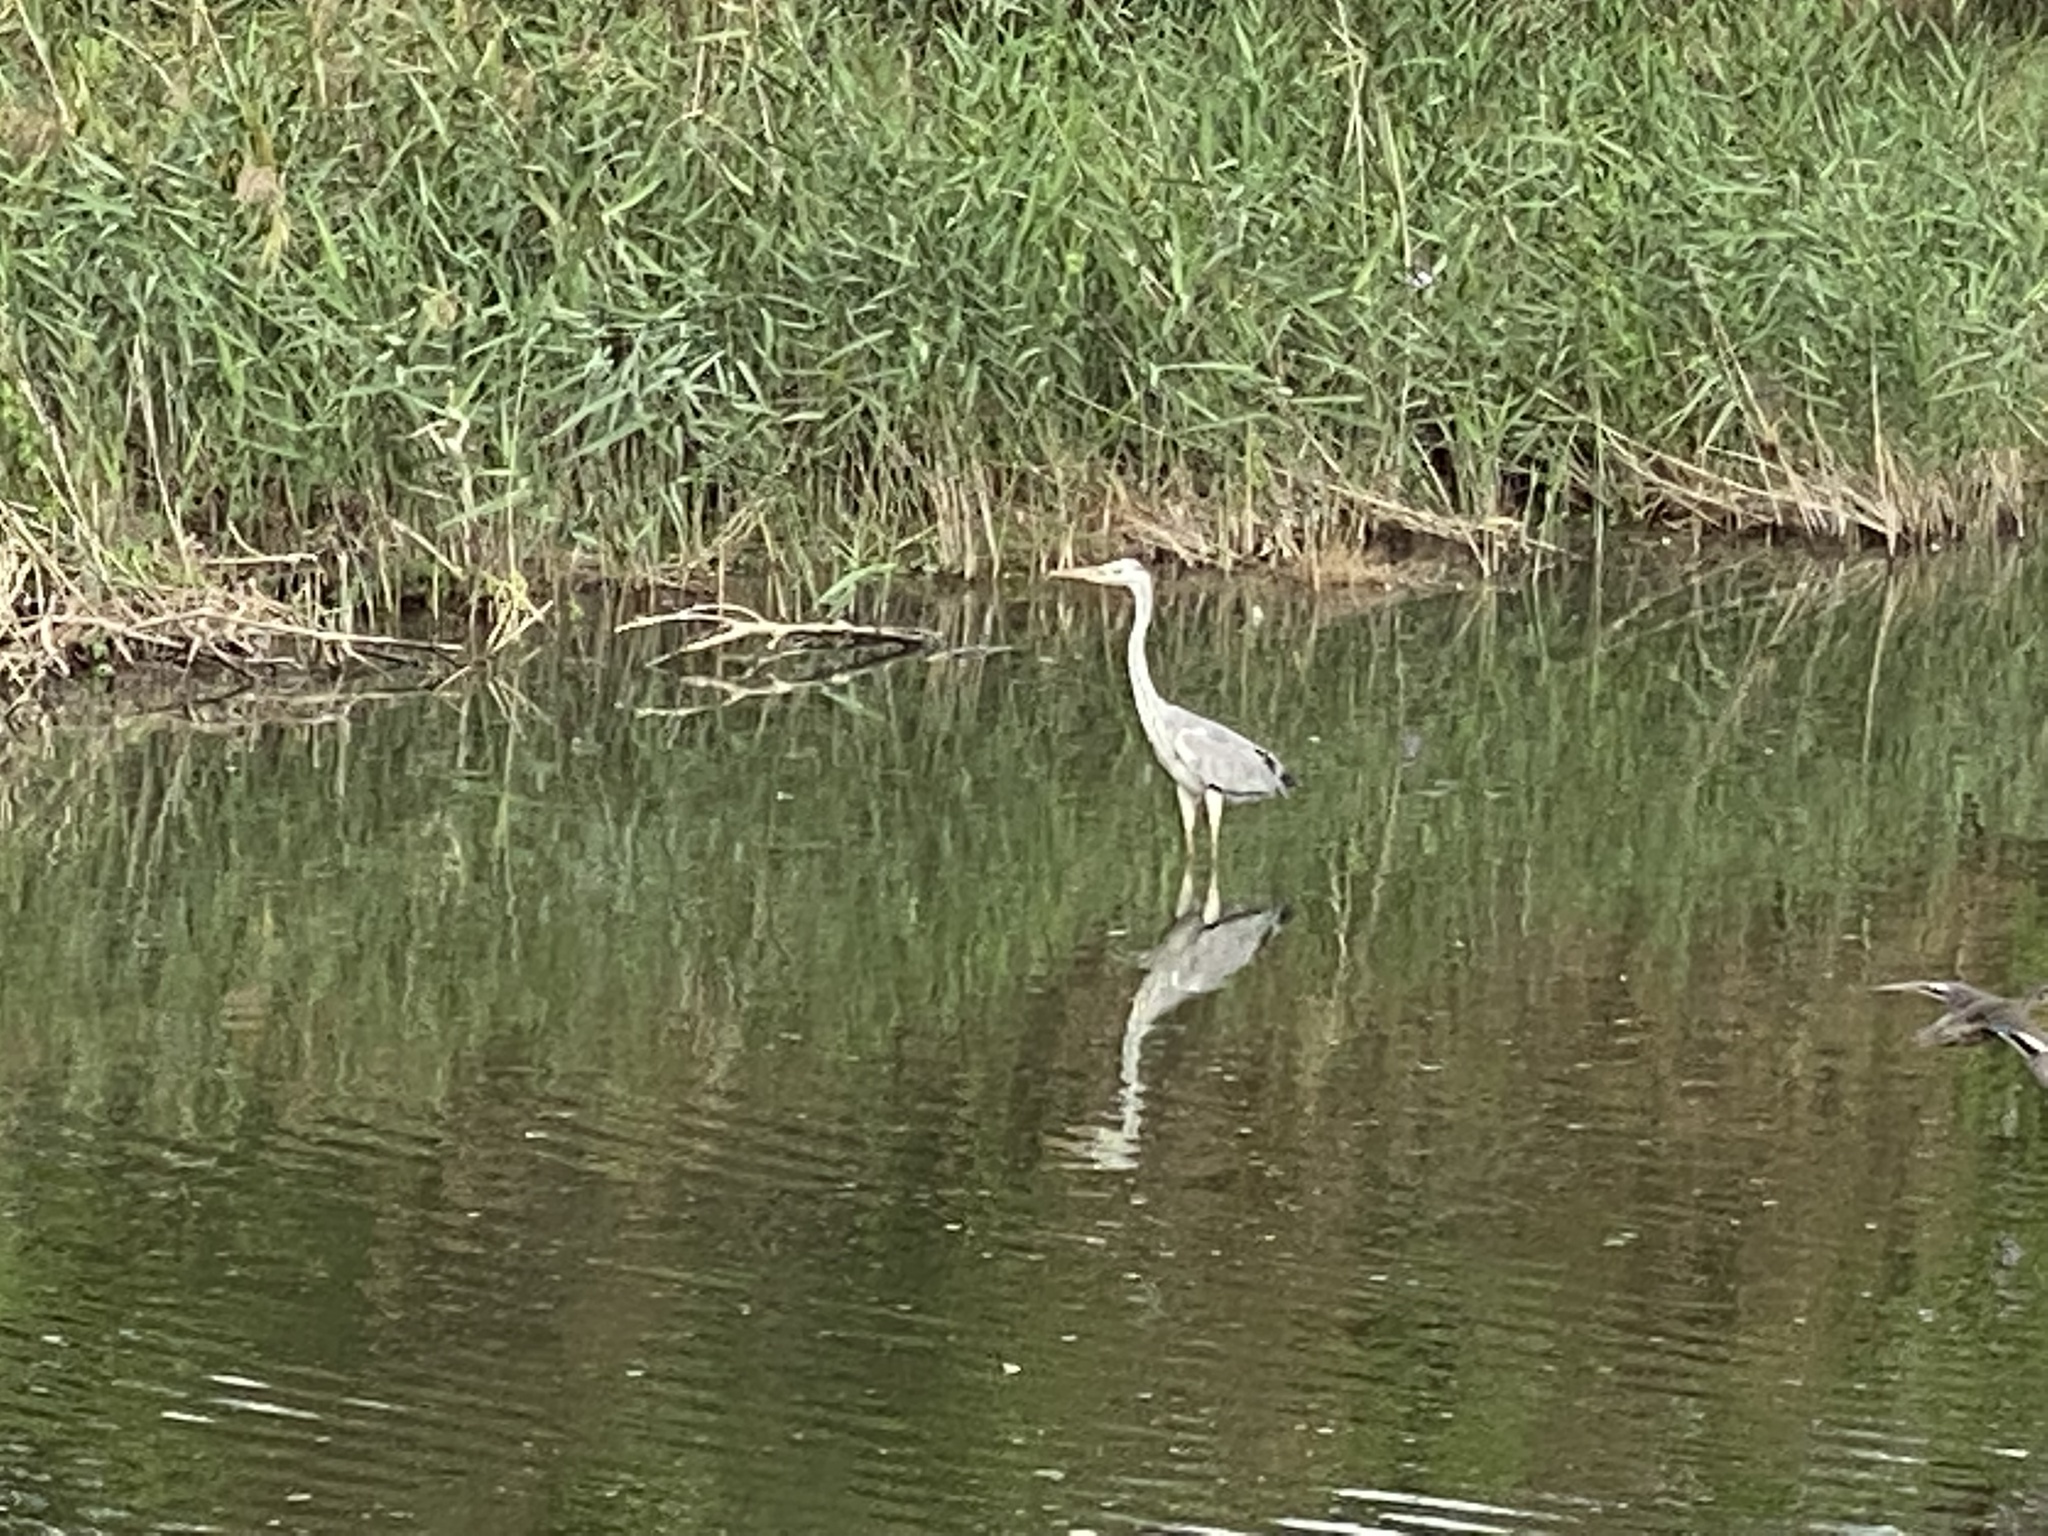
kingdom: Animalia
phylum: Chordata
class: Aves
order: Pelecaniformes
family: Ardeidae
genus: Ardea
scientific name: Ardea cinerea
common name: Grey heron
